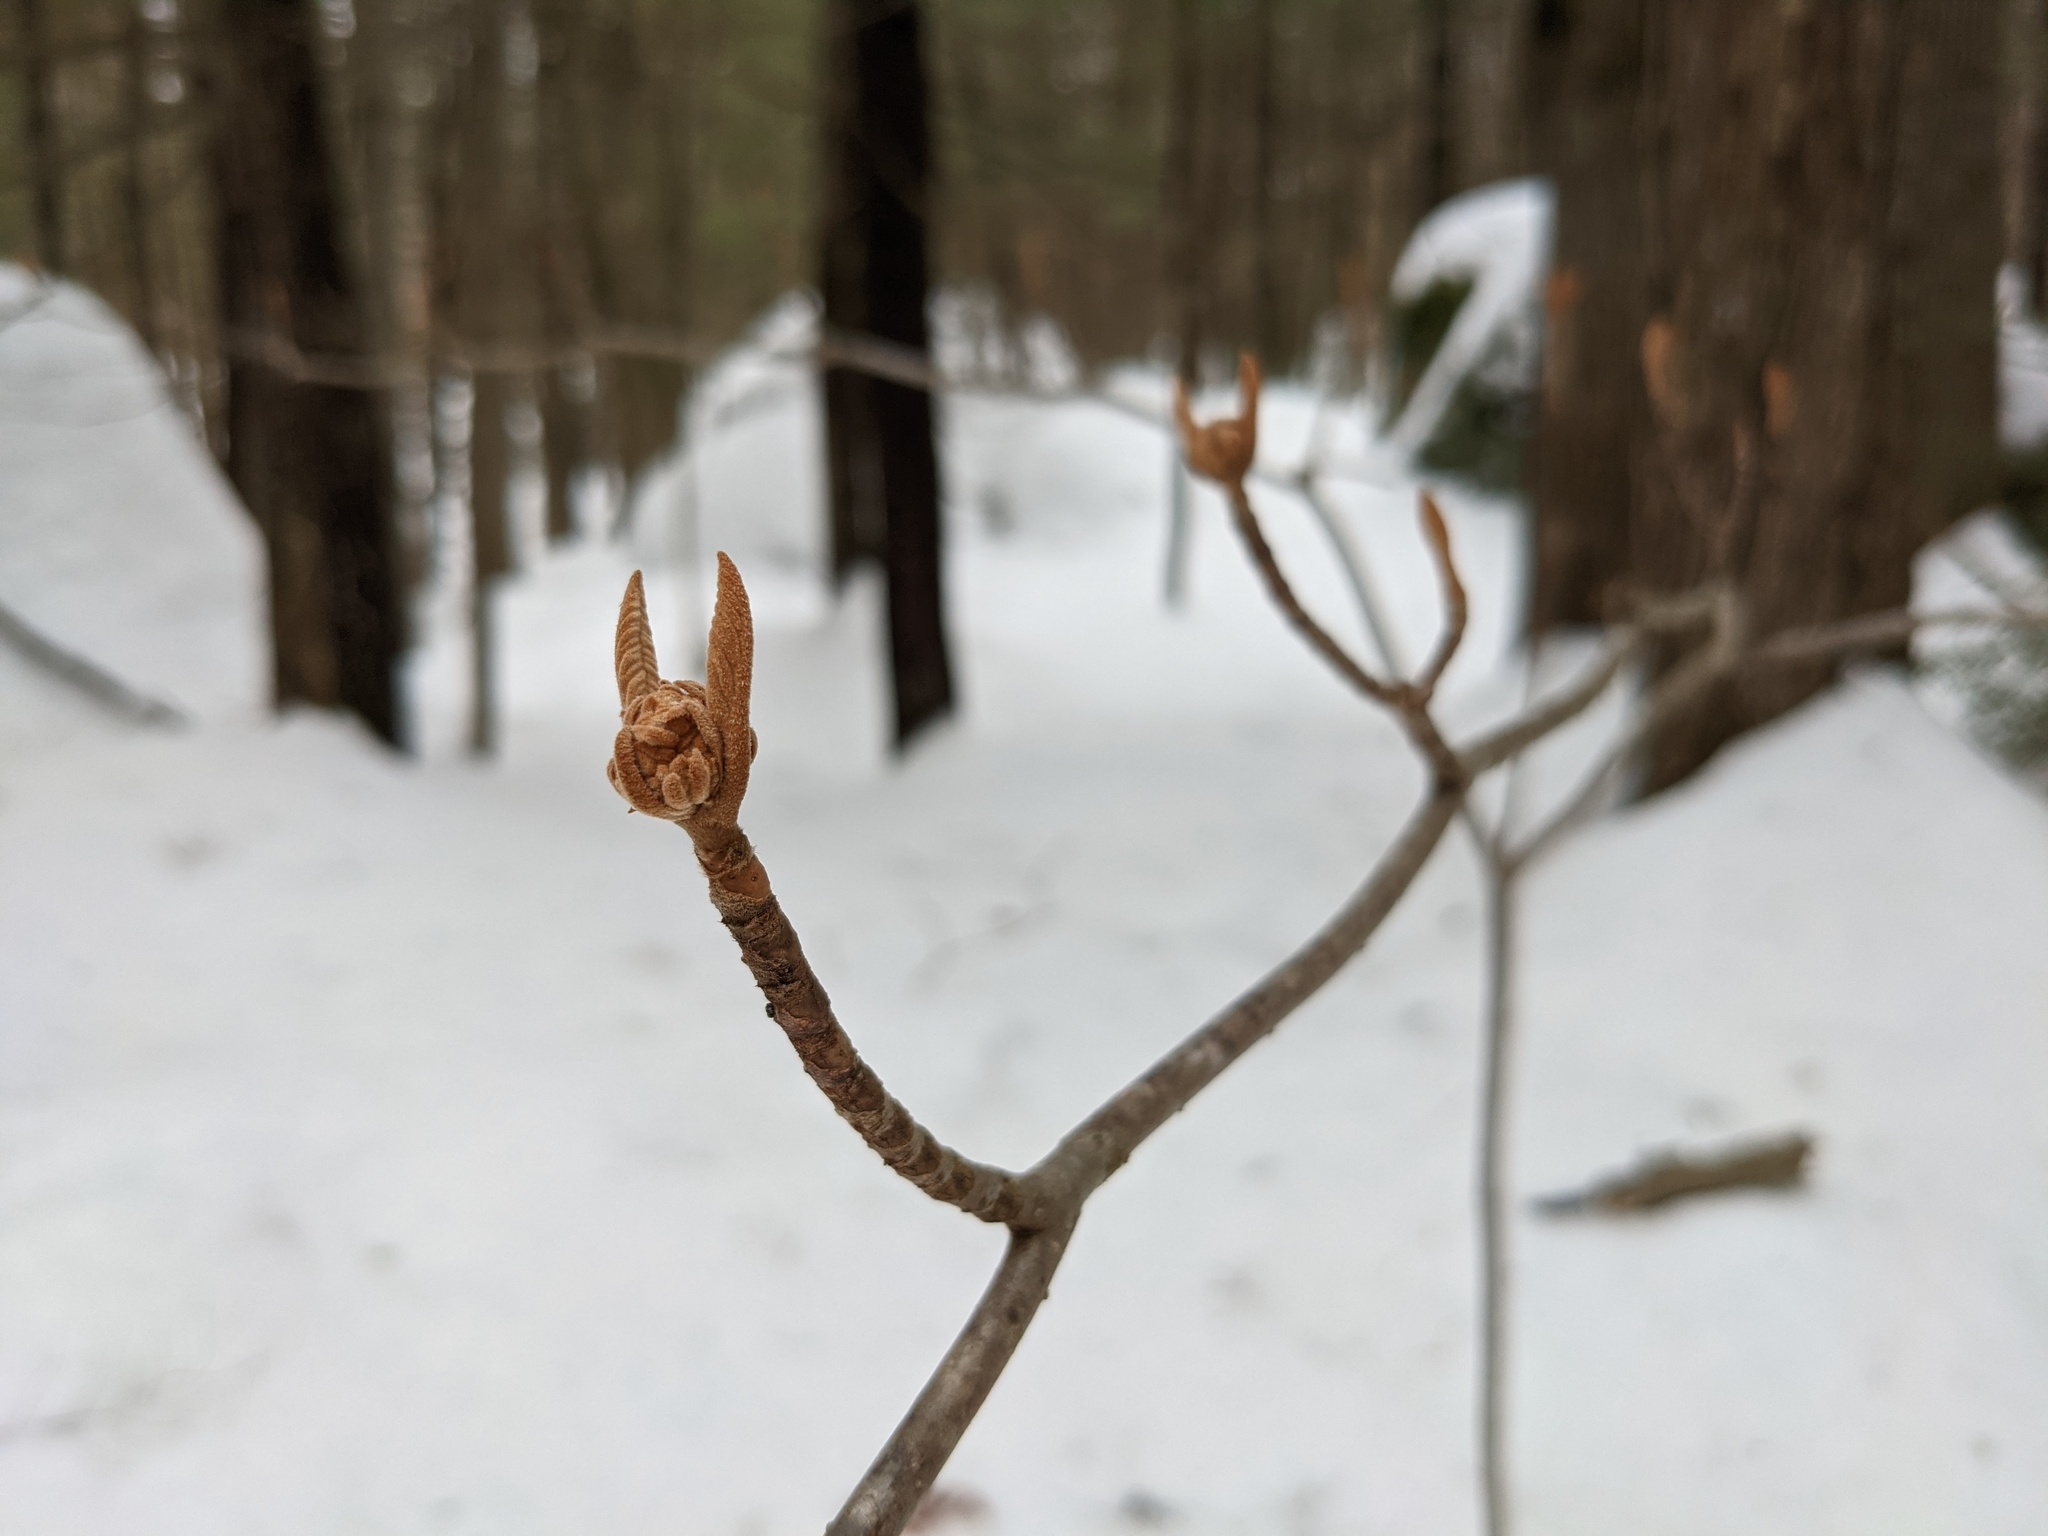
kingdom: Plantae
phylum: Tracheophyta
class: Magnoliopsida
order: Dipsacales
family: Viburnaceae
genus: Viburnum
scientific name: Viburnum lantanoides
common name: Hobblebush
